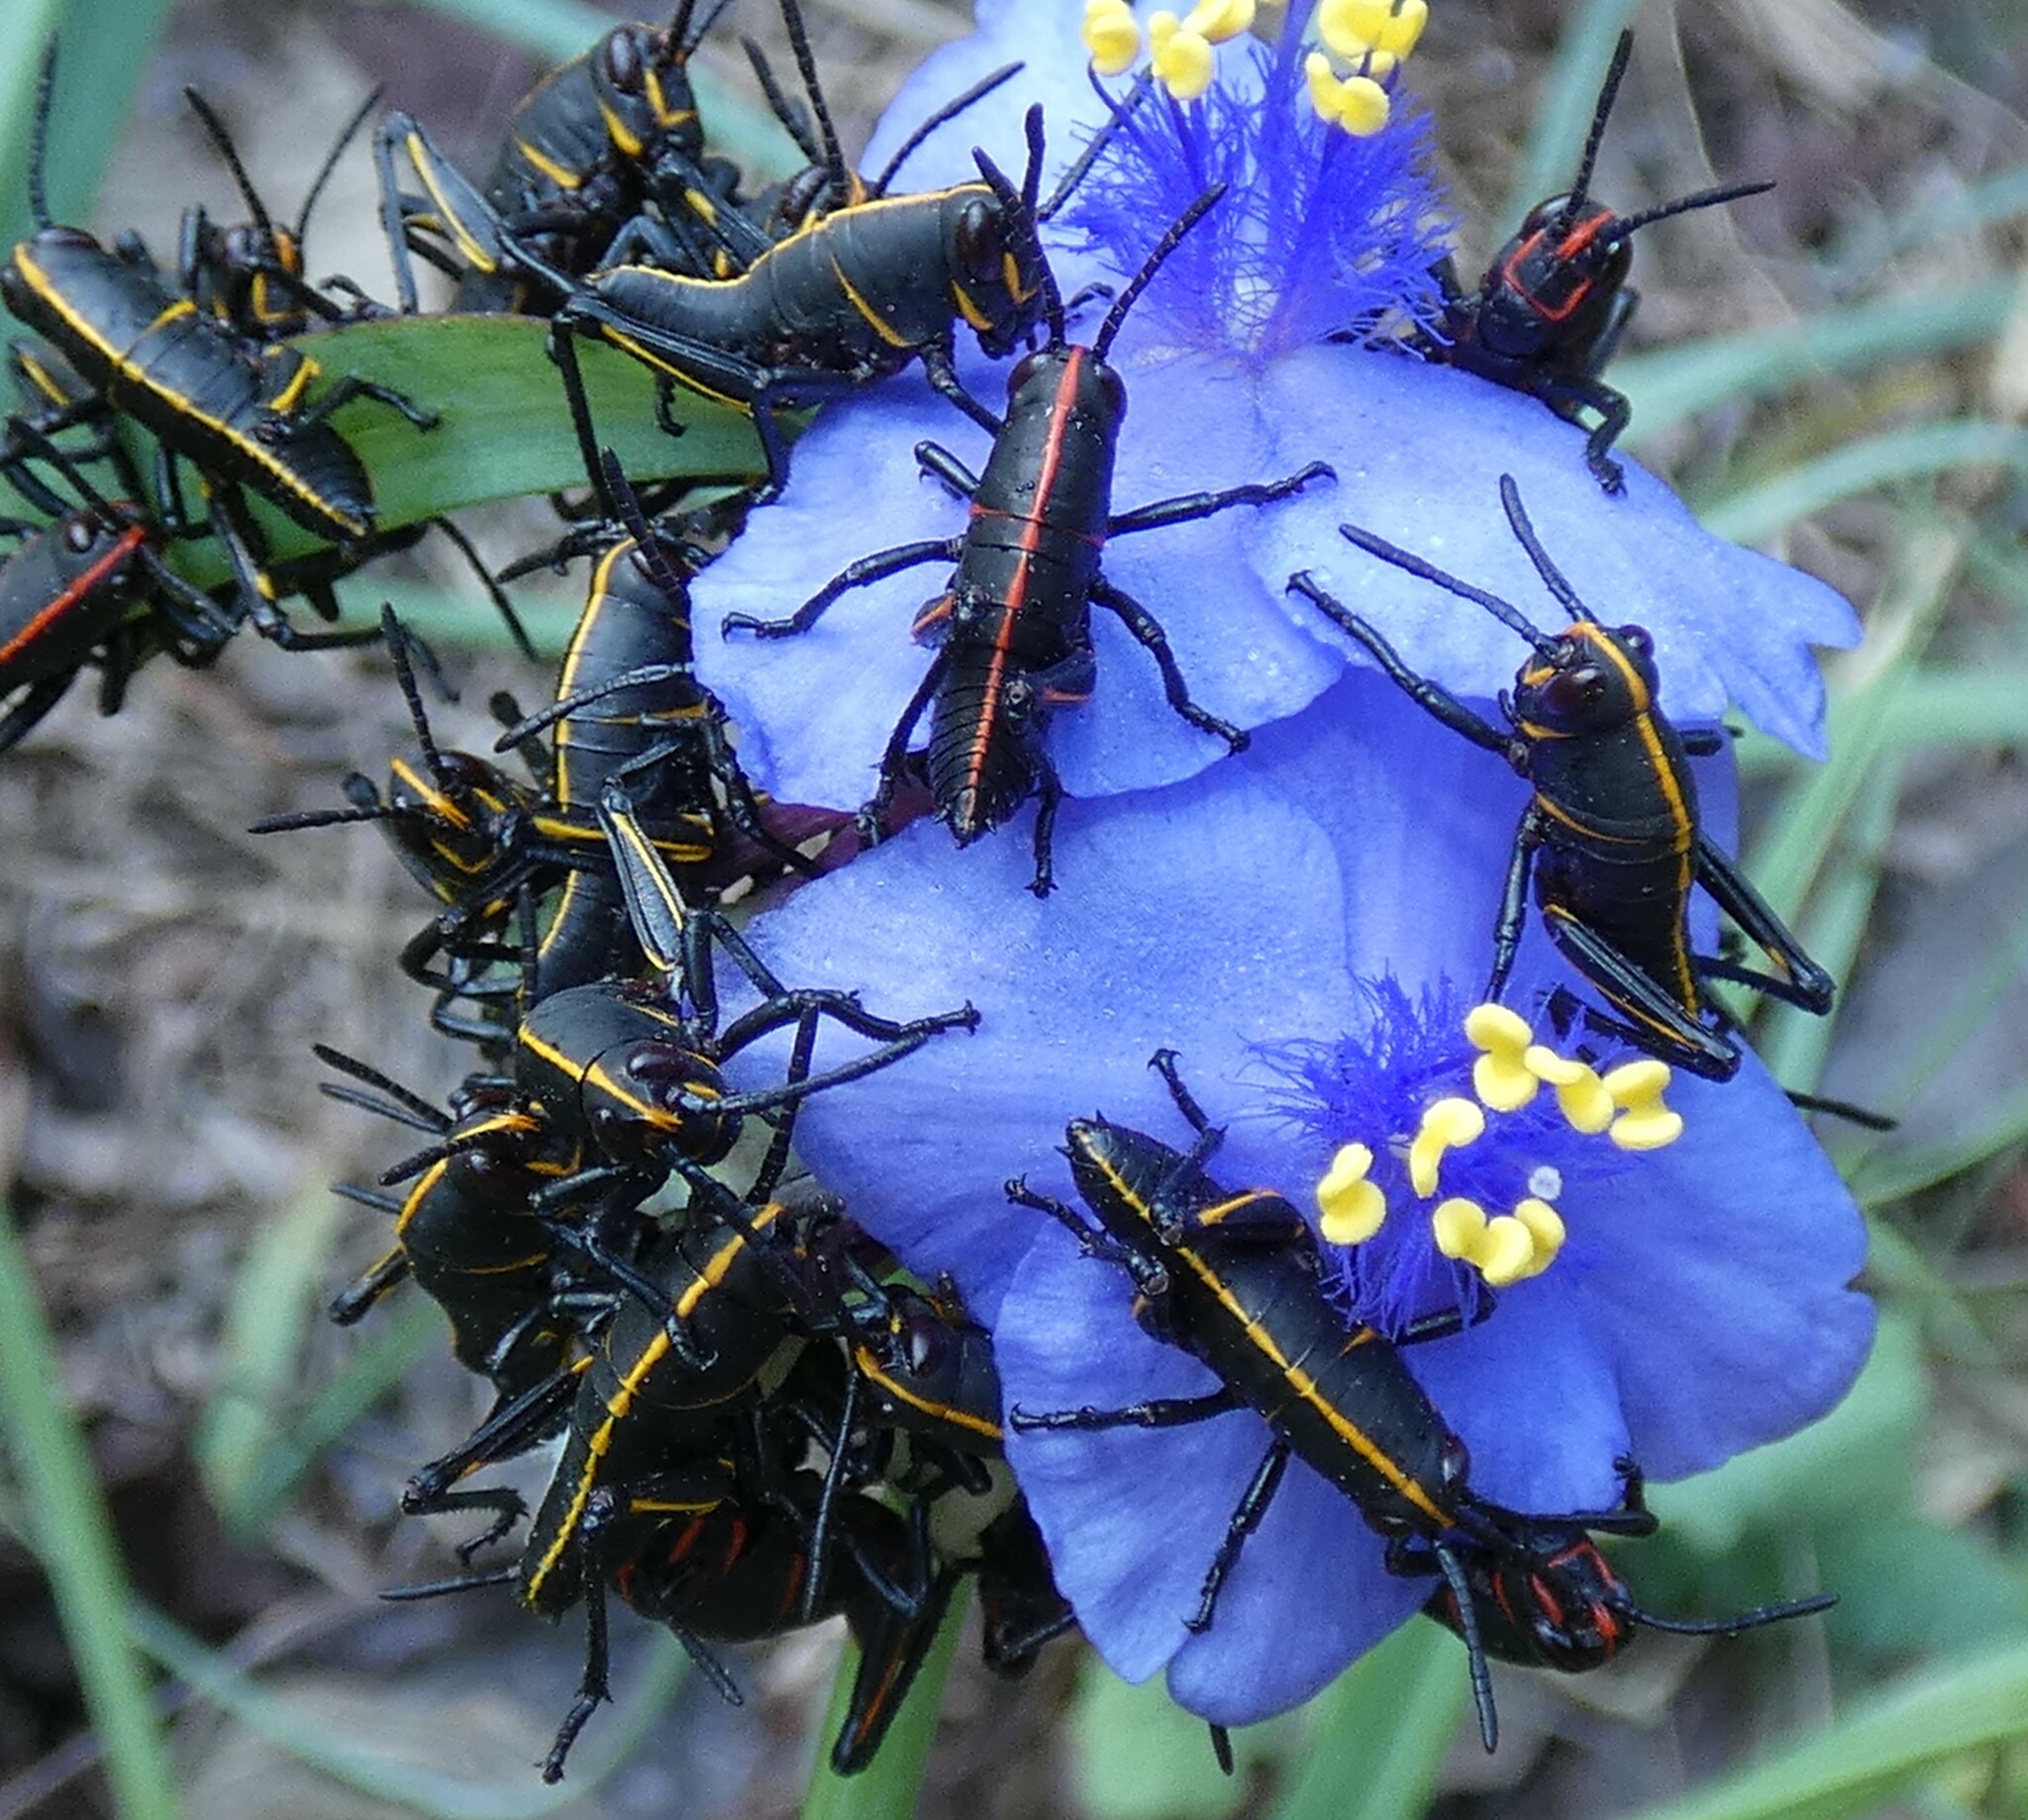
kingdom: Animalia
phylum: Arthropoda
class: Insecta
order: Orthoptera
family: Romaleidae
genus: Romalea
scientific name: Romalea microptera
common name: Eastern lubber grasshopper
